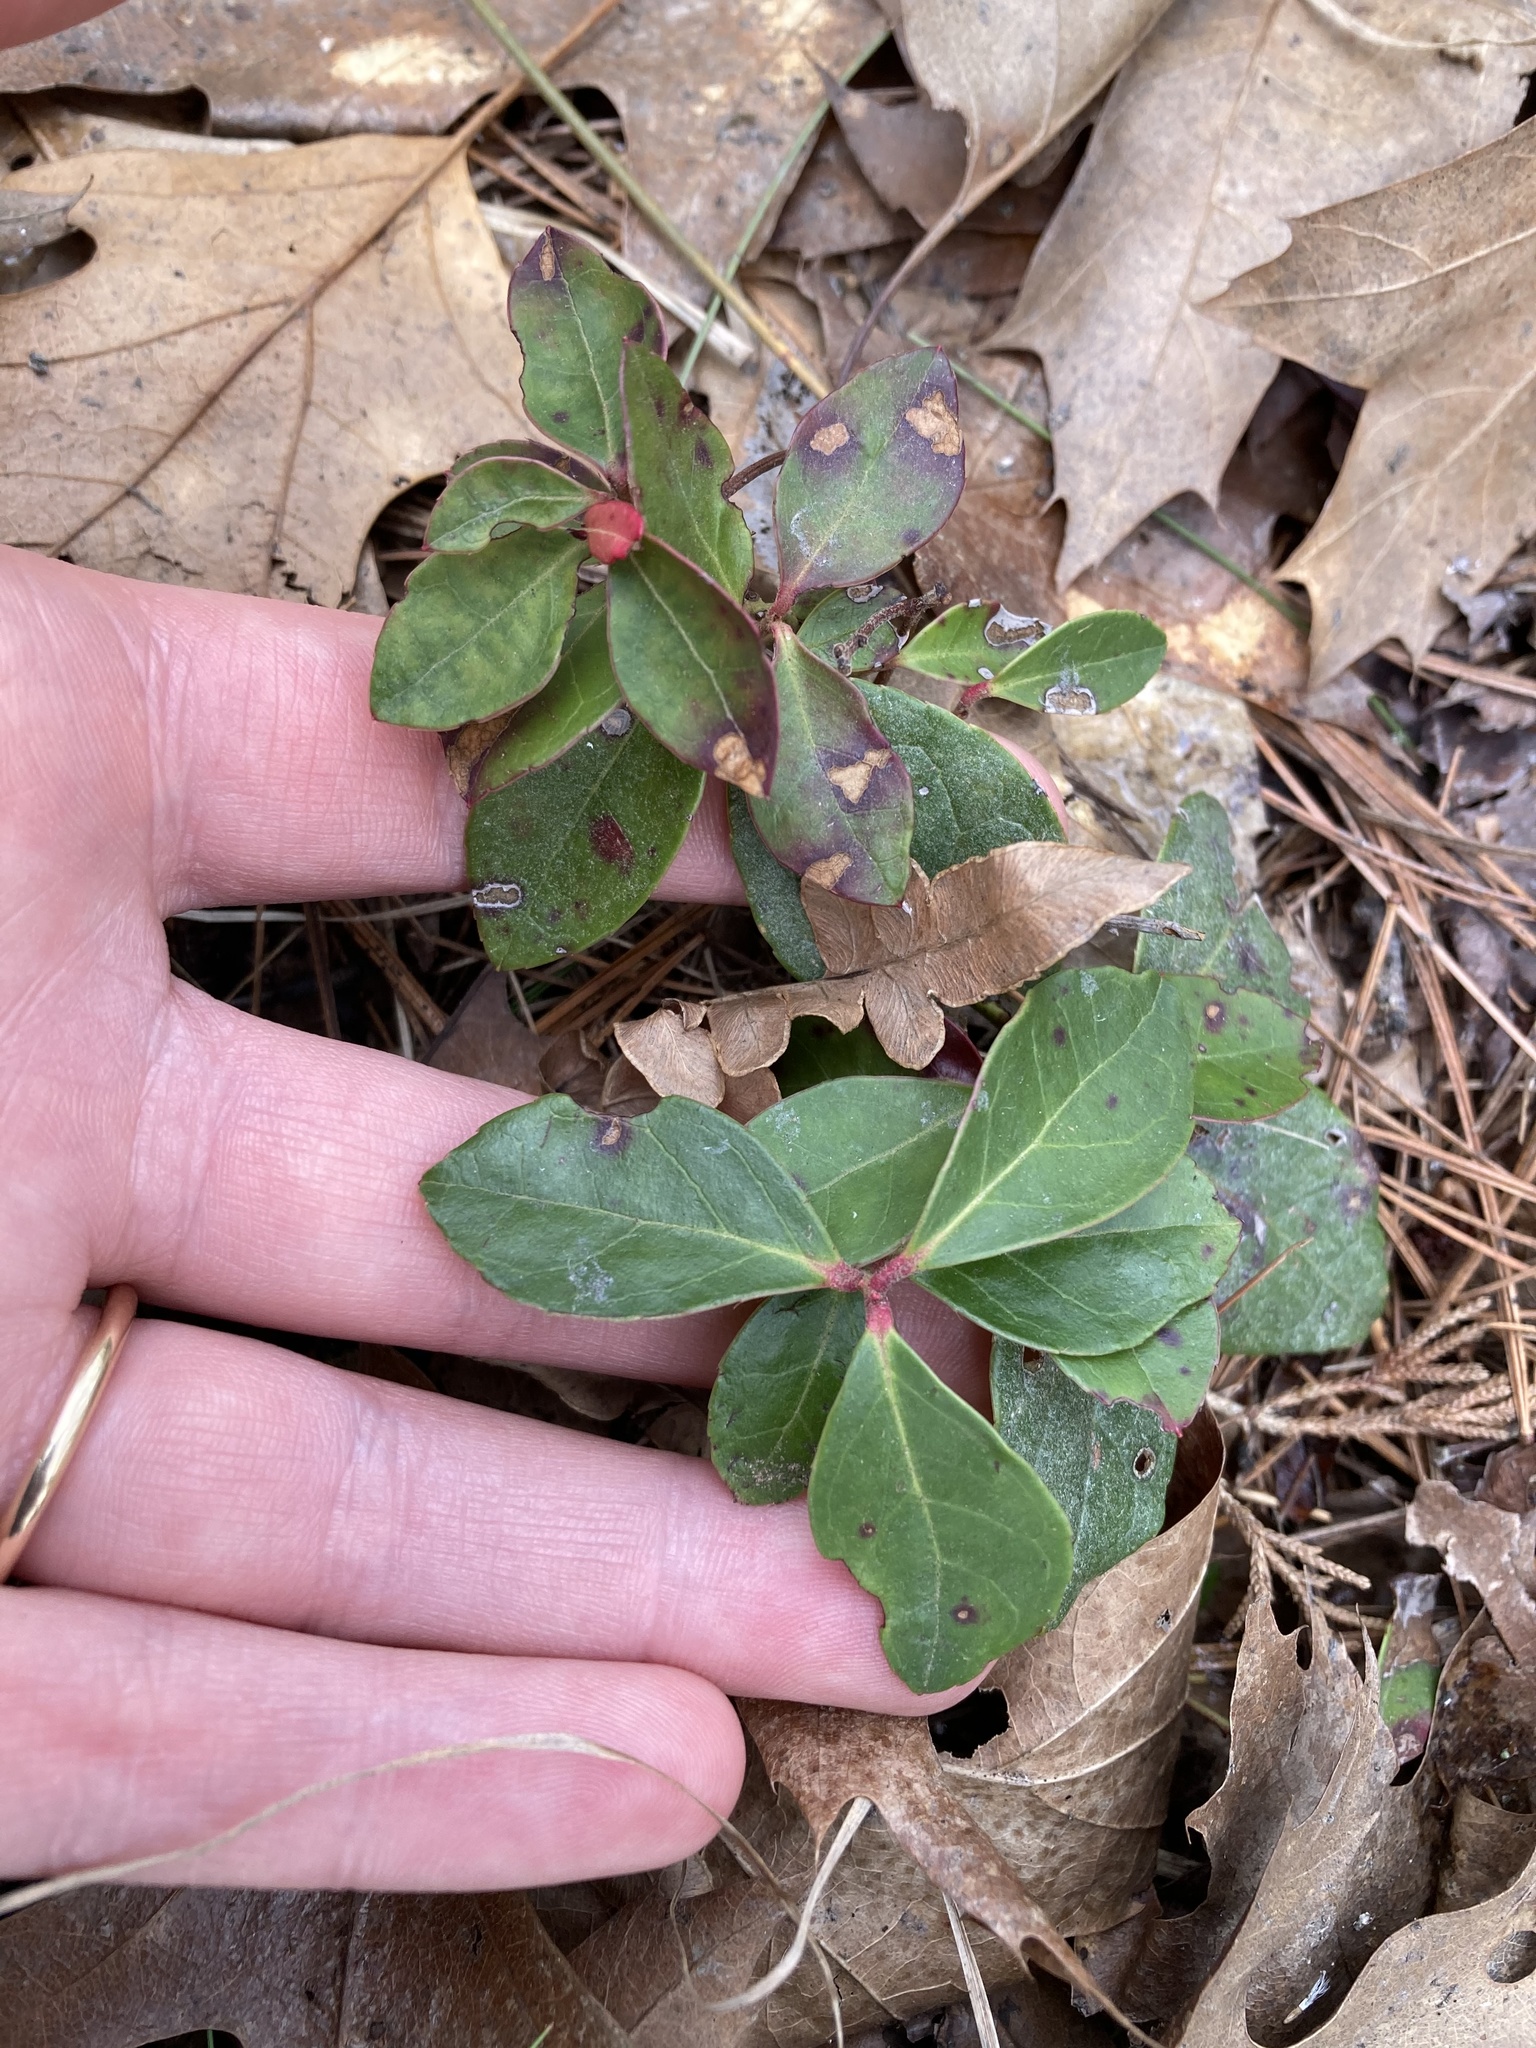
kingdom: Plantae
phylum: Tracheophyta
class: Magnoliopsida
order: Ericales
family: Ericaceae
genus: Gaultheria
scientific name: Gaultheria procumbens
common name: Checkerberry
